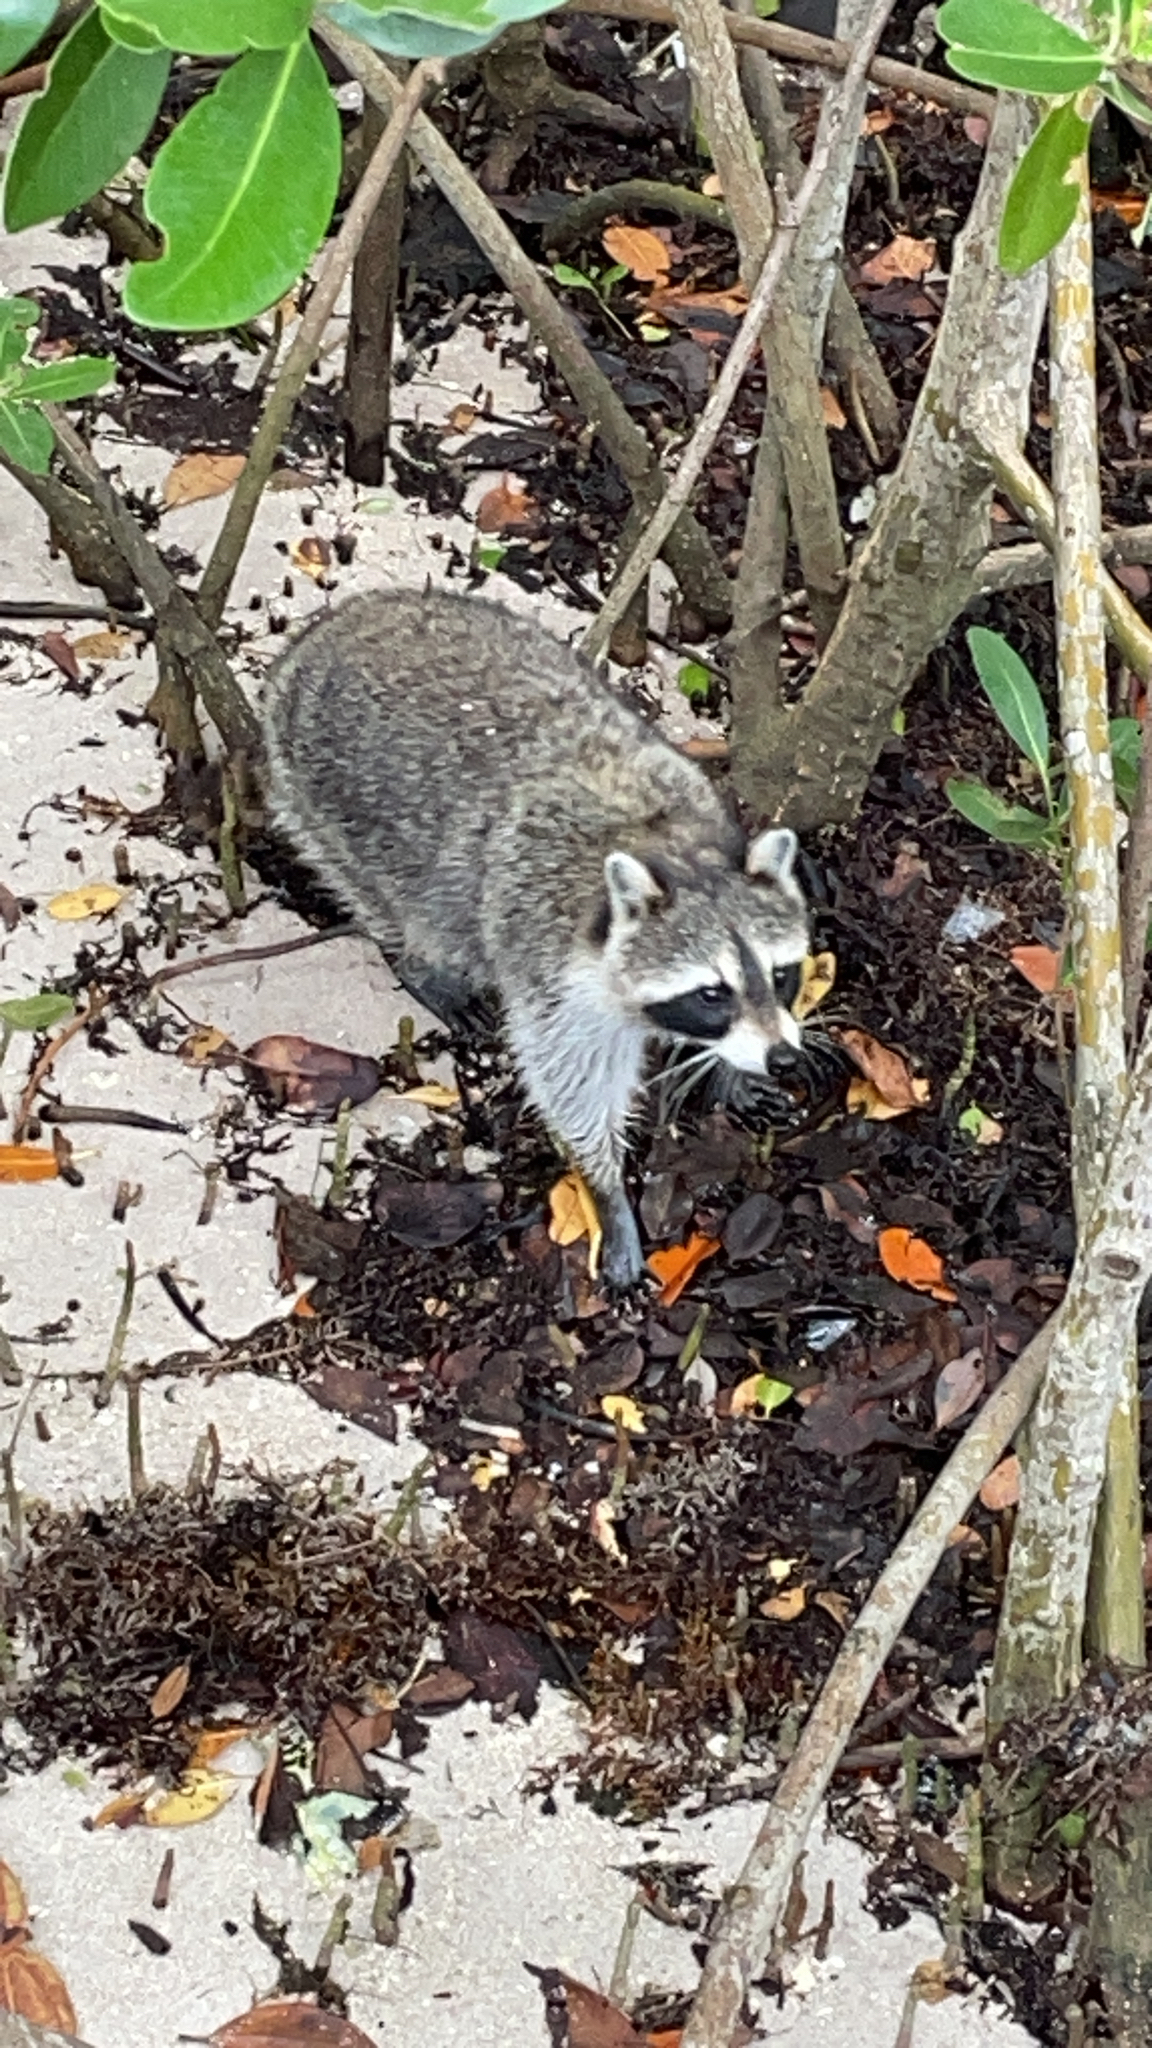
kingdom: Animalia
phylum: Chordata
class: Mammalia
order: Carnivora
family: Procyonidae
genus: Procyon
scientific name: Procyon lotor
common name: Raccoon
